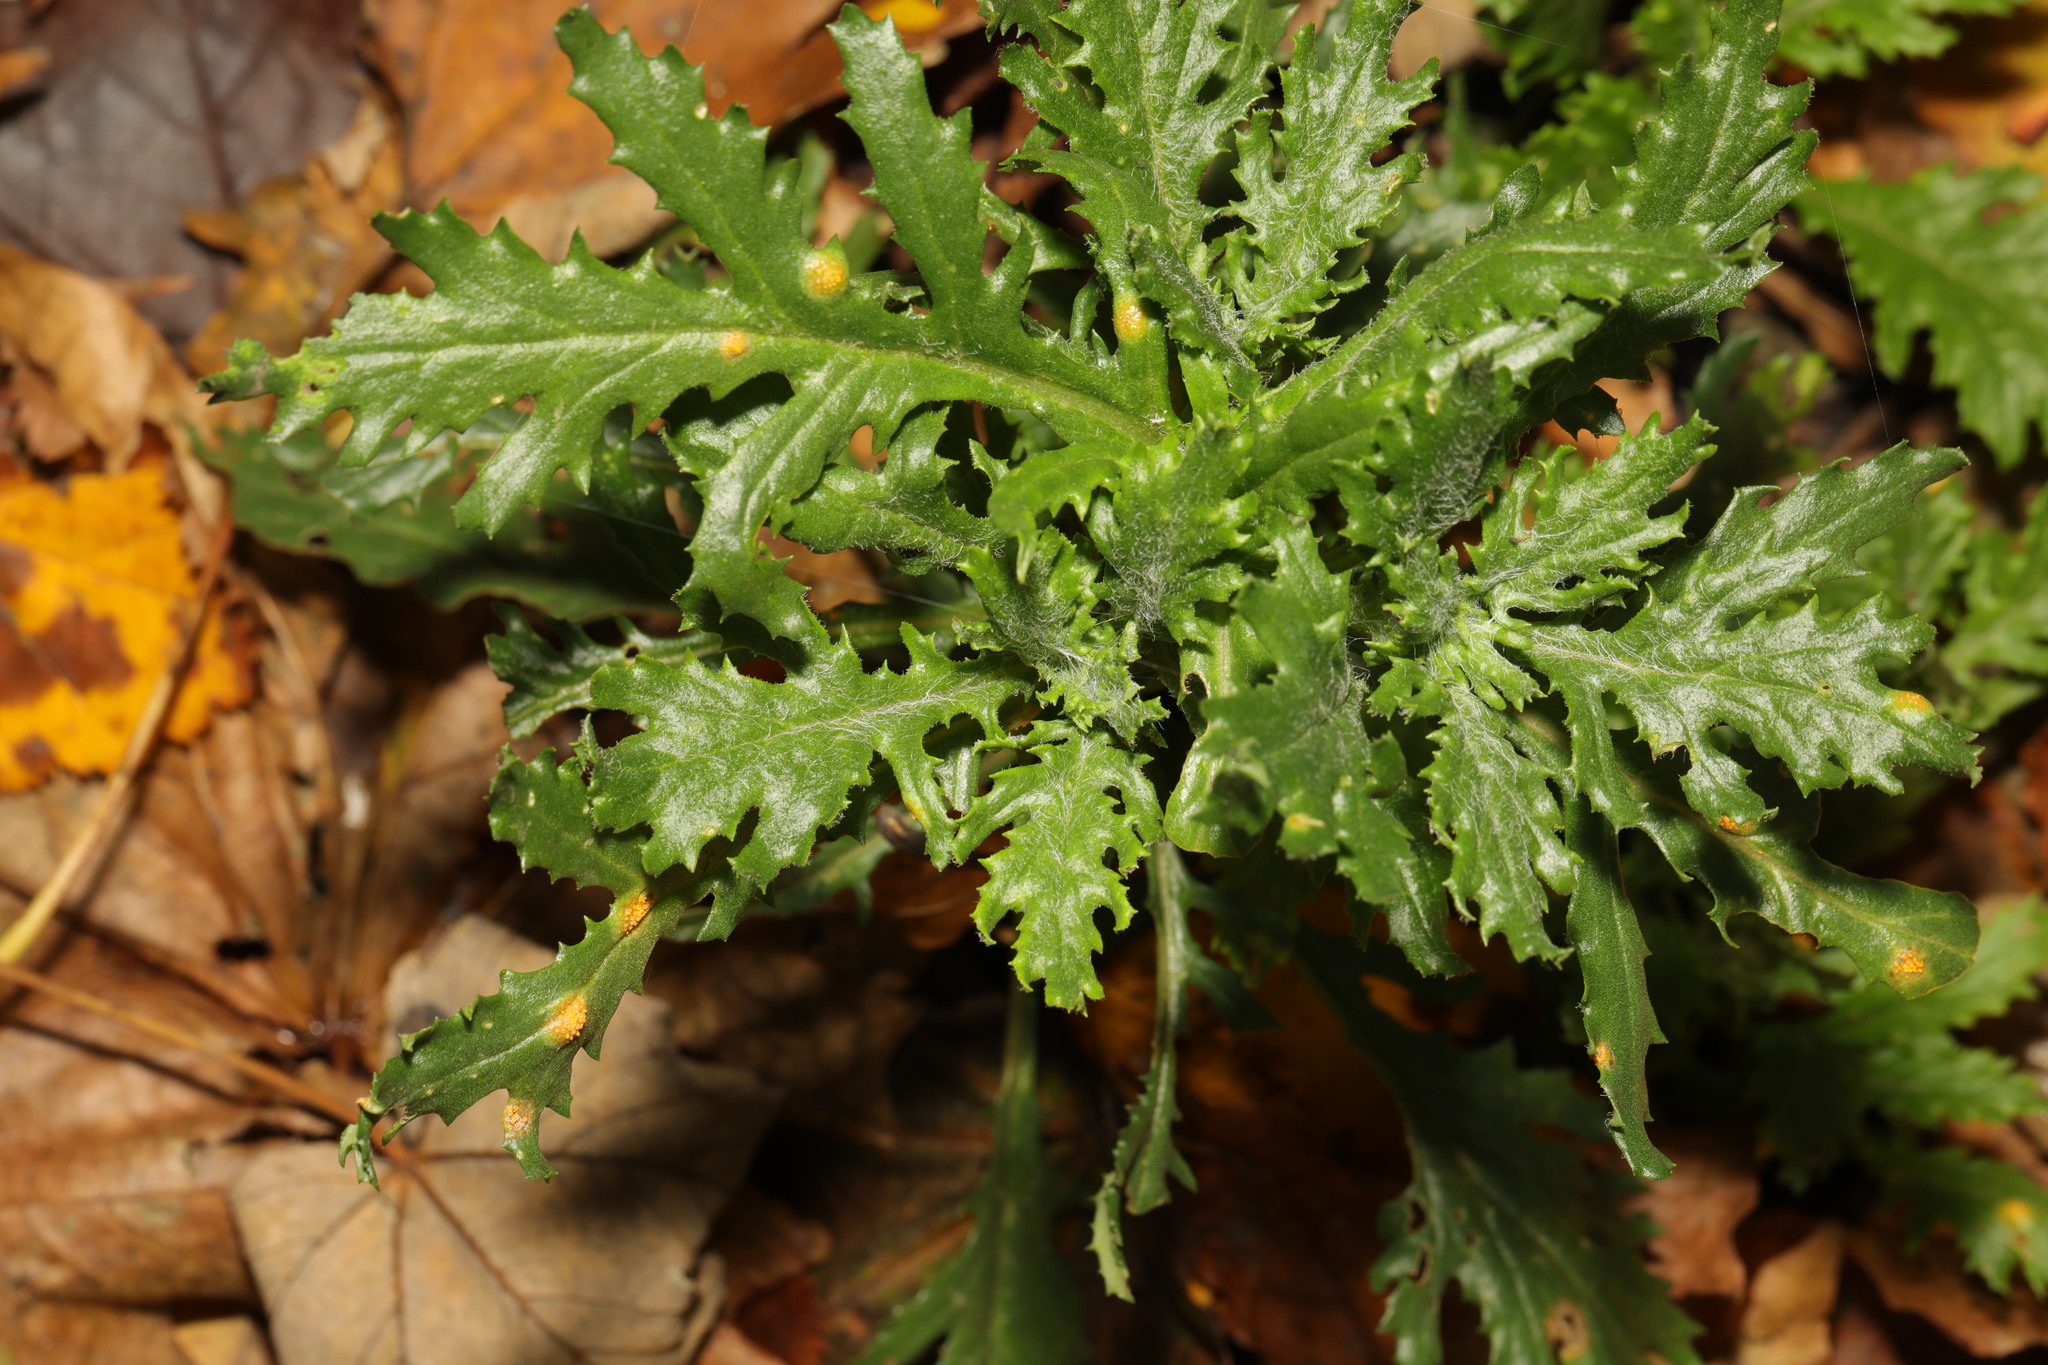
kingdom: Plantae
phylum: Tracheophyta
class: Magnoliopsida
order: Asterales
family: Asteraceae
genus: Senecio
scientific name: Senecio vulgaris
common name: Old-man-in-the-spring
